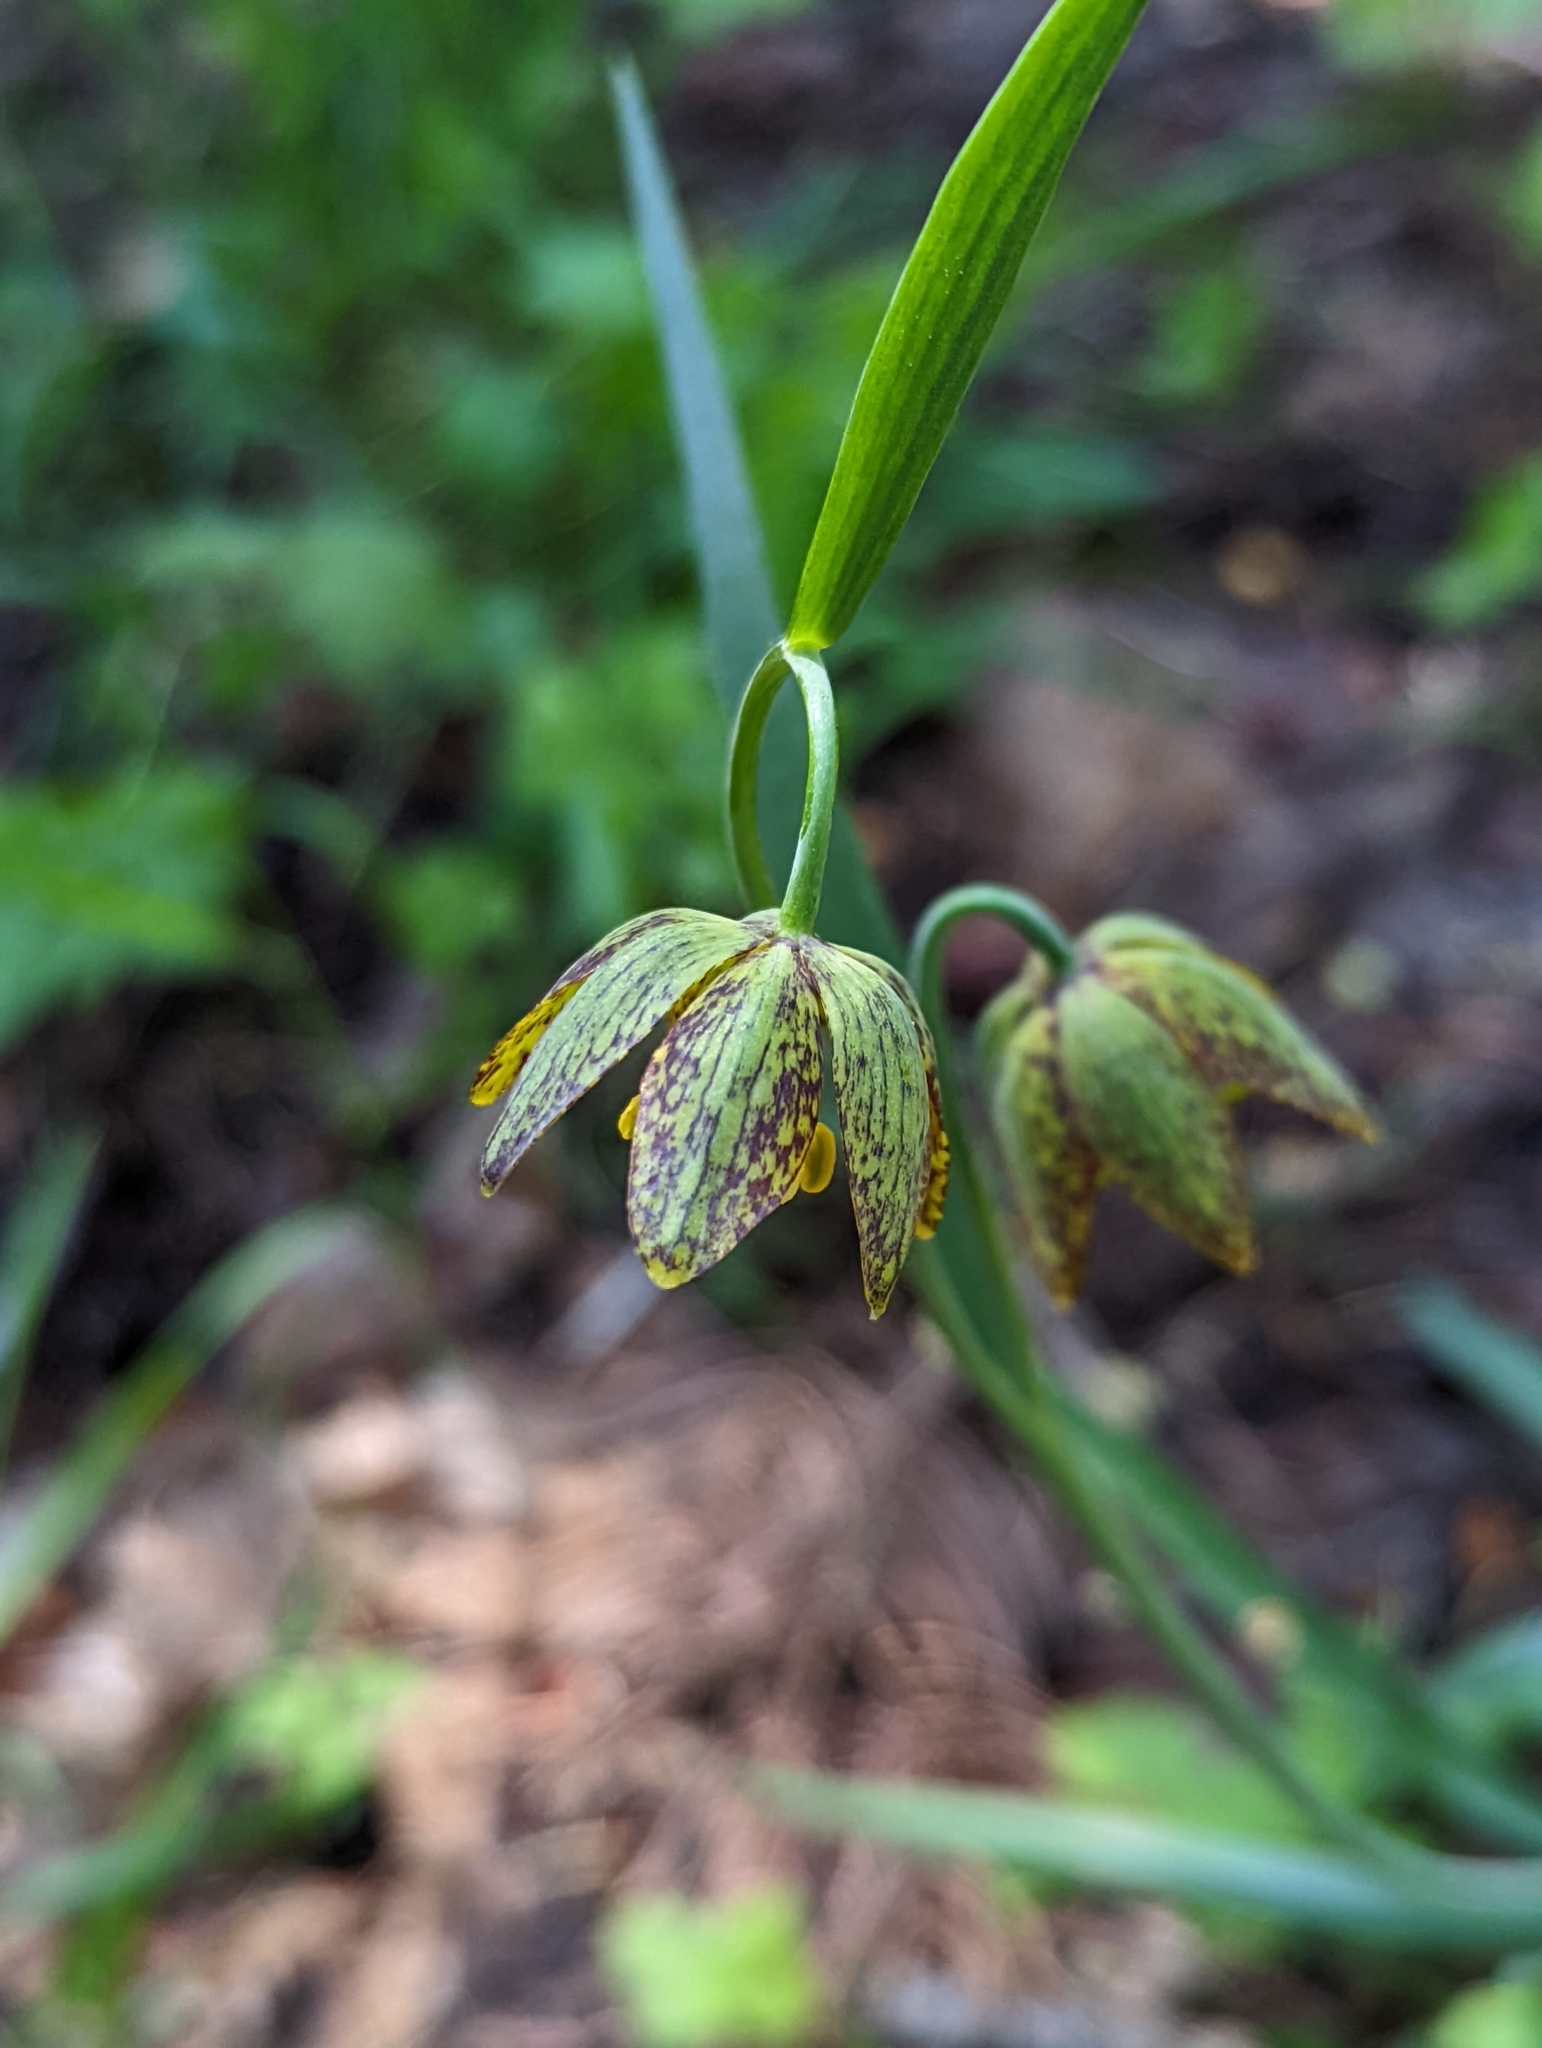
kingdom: Plantae
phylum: Tracheophyta
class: Liliopsida
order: Liliales
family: Liliaceae
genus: Fritillaria
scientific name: Fritillaria atropurpurea
